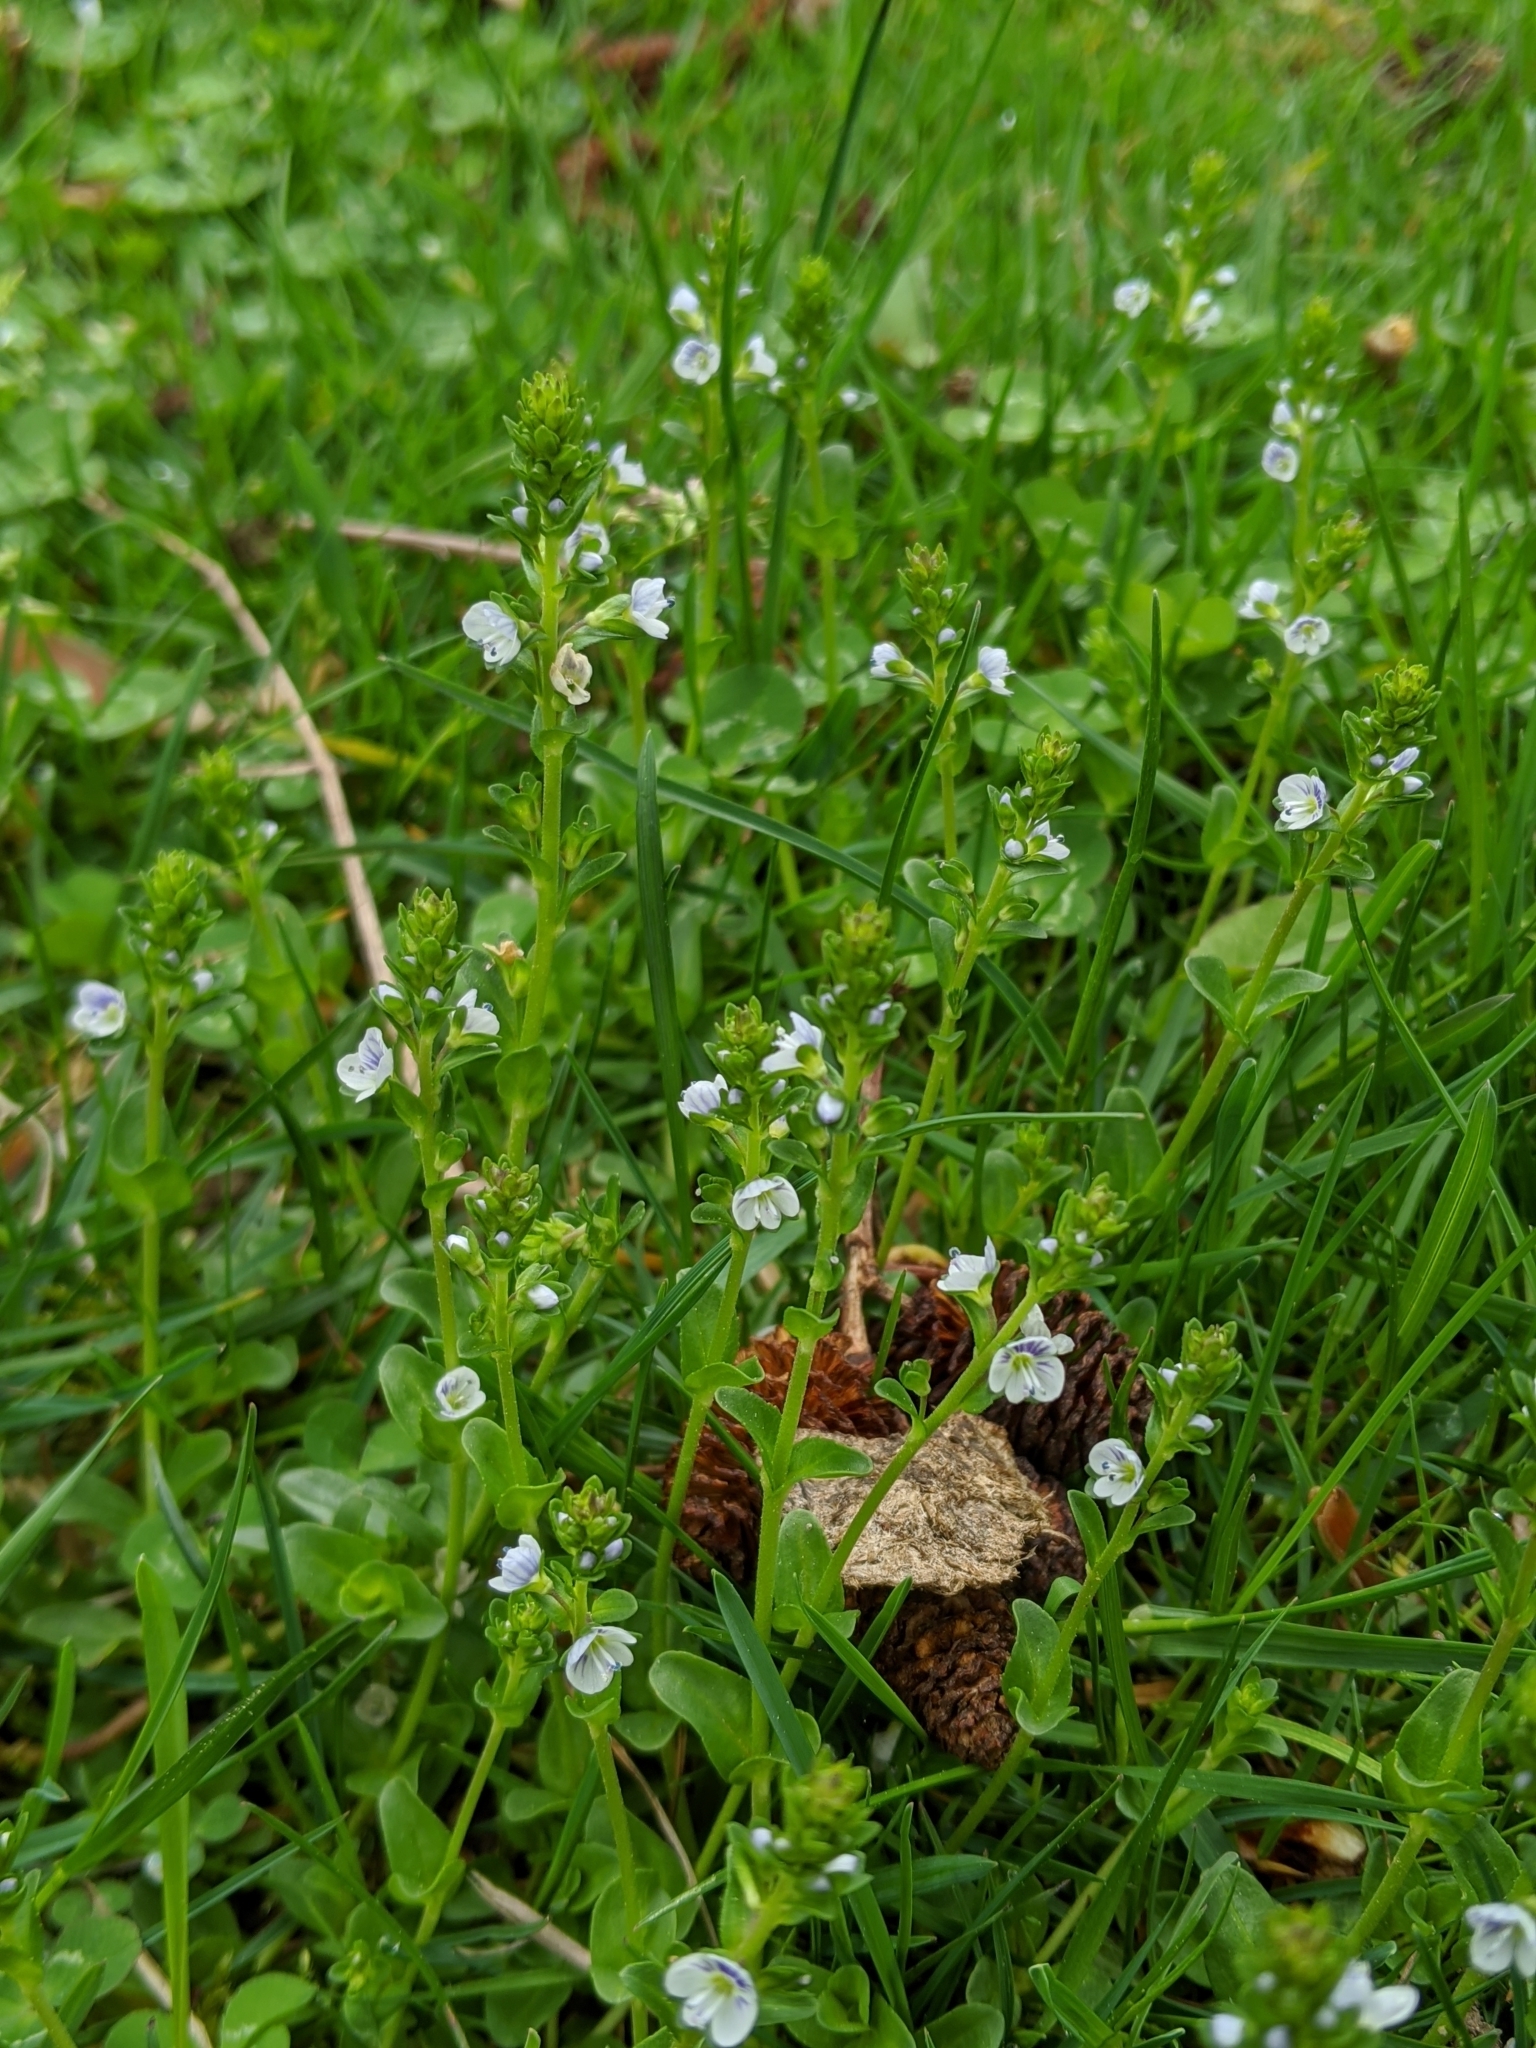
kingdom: Plantae
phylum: Tracheophyta
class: Magnoliopsida
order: Lamiales
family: Plantaginaceae
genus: Veronica
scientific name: Veronica serpyllifolia
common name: Thyme-leaved speedwell
